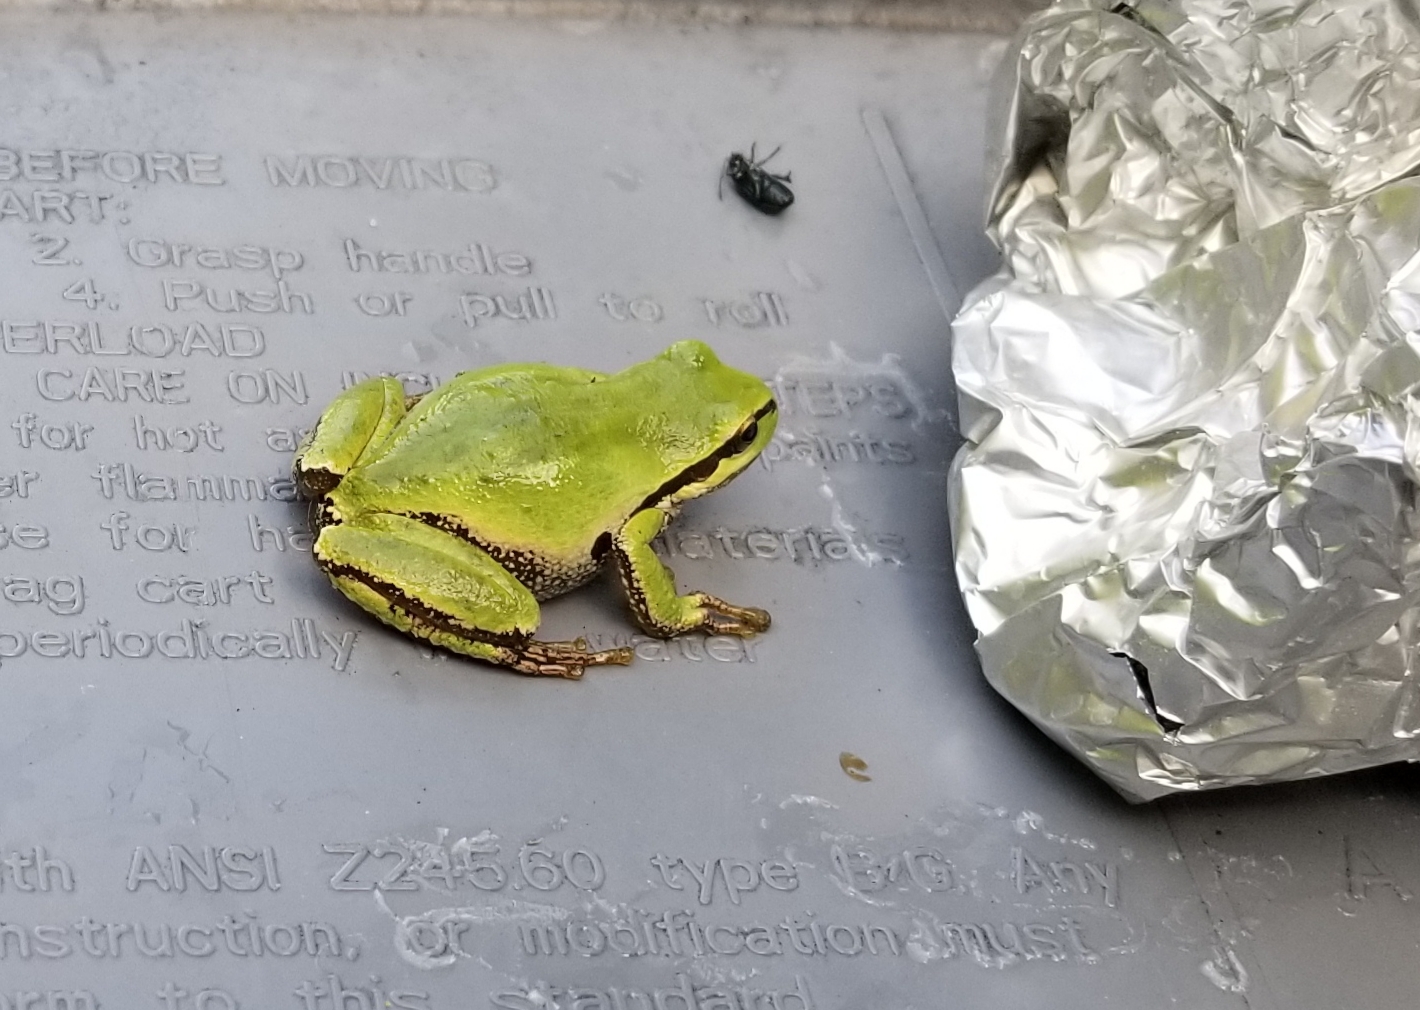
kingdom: Animalia
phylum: Chordata
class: Amphibia
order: Anura
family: Hylidae
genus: Pseudacris
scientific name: Pseudacris regilla
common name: Pacific chorus frog
